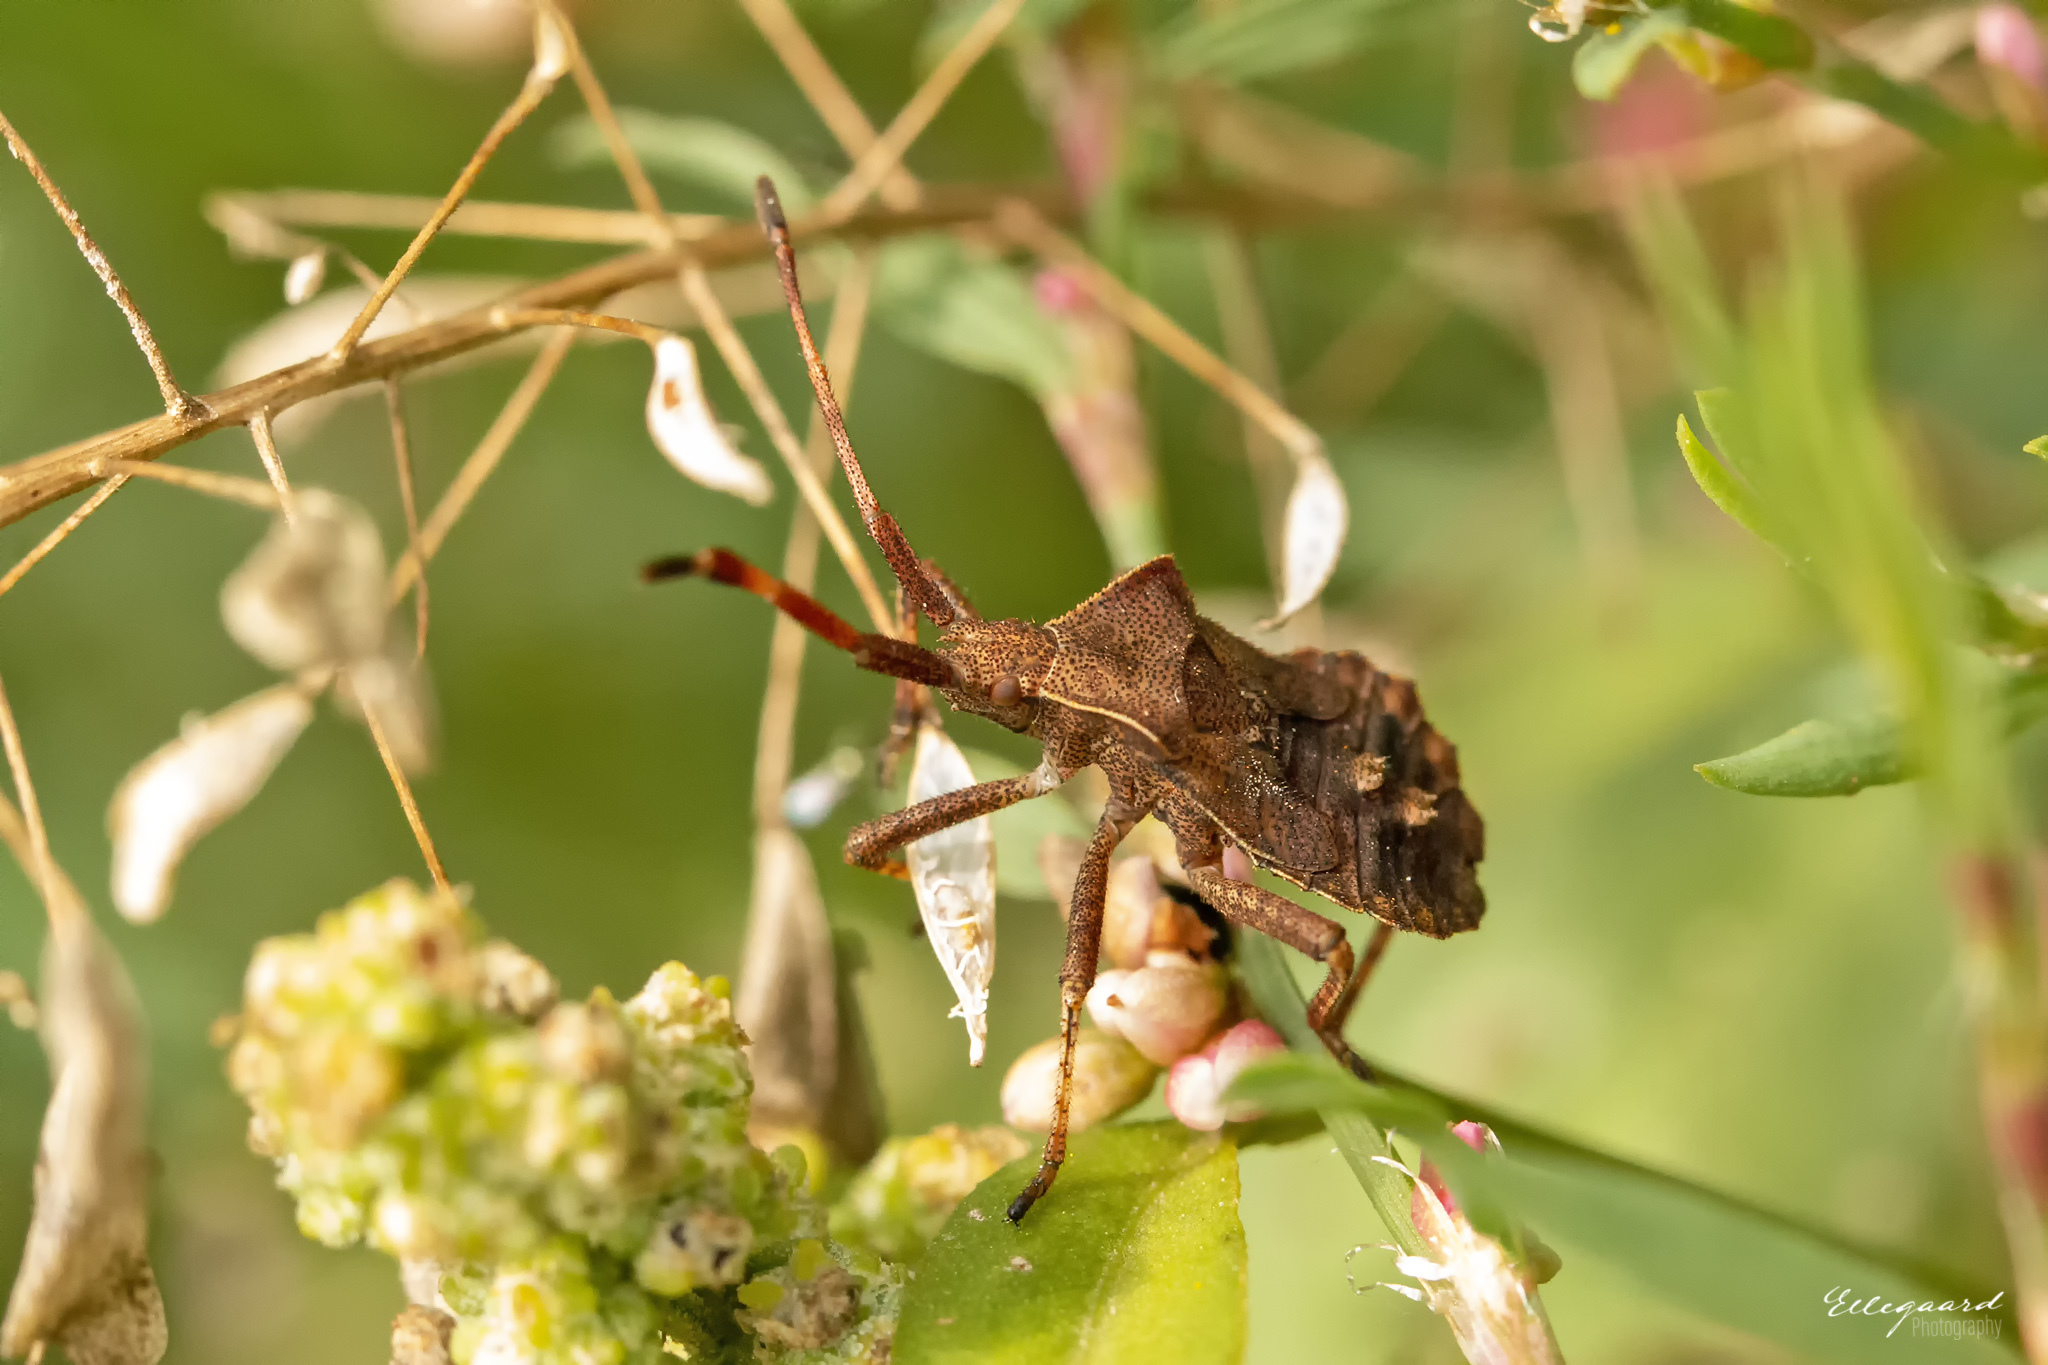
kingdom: Animalia
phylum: Arthropoda
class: Insecta
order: Hemiptera
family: Coreidae
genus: Coreus
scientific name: Coreus marginatus
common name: Dock bug
